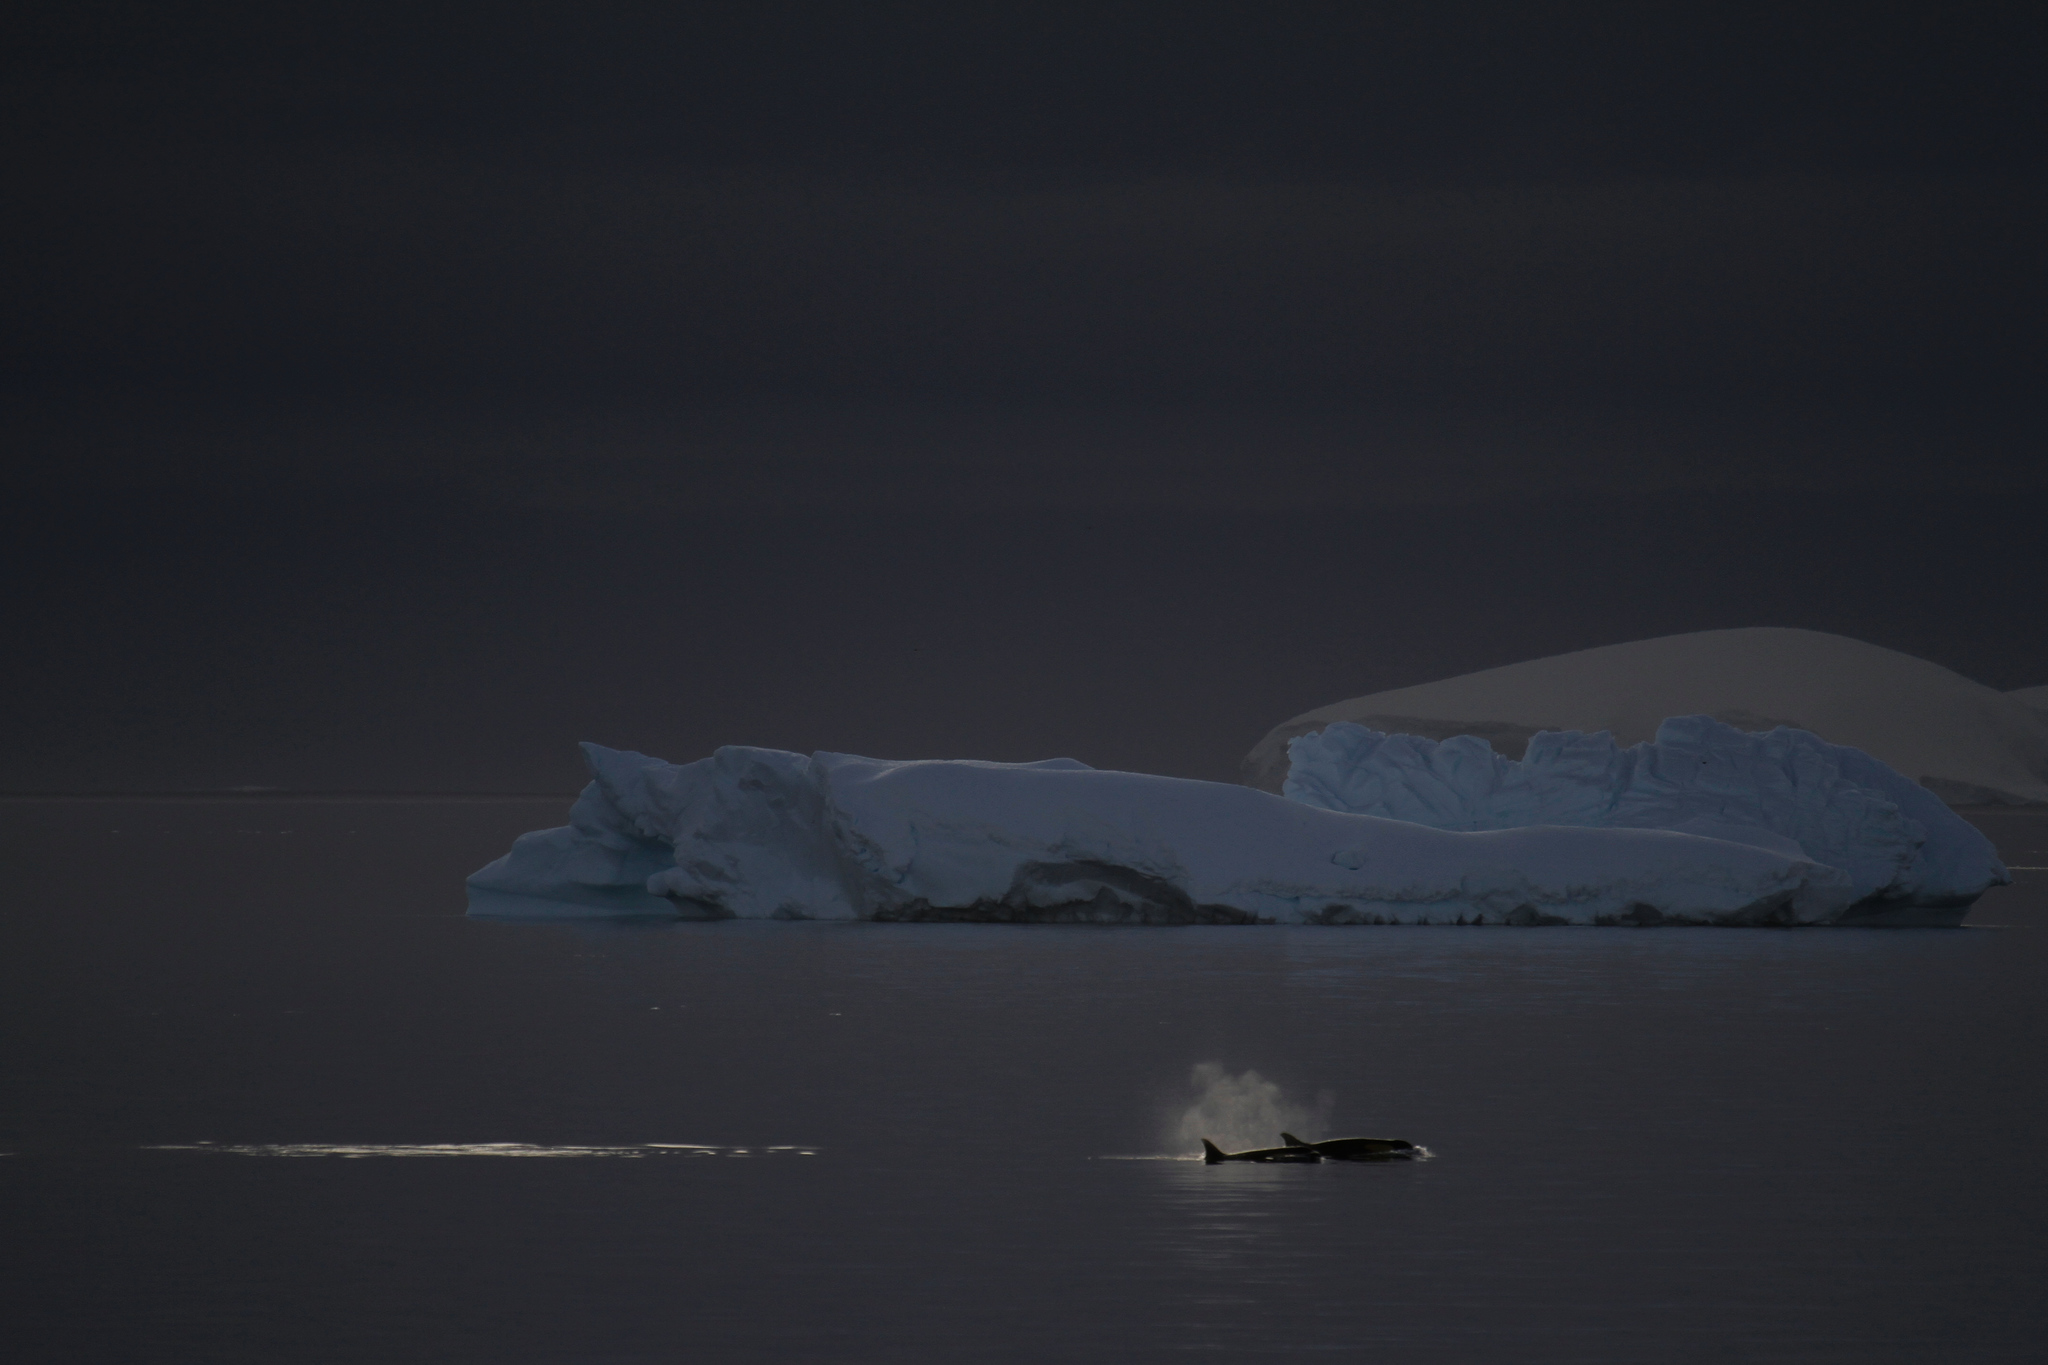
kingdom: Animalia
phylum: Chordata
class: Mammalia
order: Cetacea
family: Delphinidae
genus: Orcinus
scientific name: Orcinus orca
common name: Killer whale
